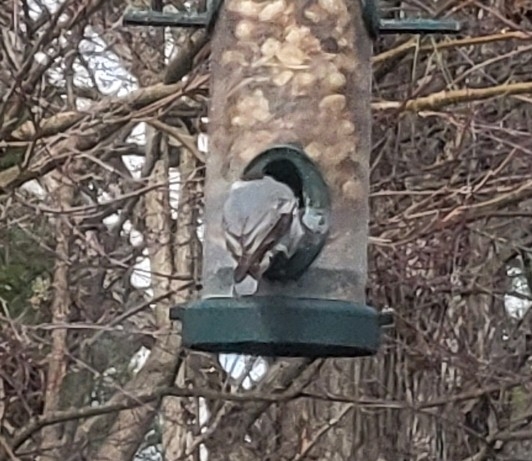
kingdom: Animalia
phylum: Chordata
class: Aves
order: Passeriformes
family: Sittidae
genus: Sitta
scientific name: Sitta pusilla
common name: Brown-headed nuthatch
